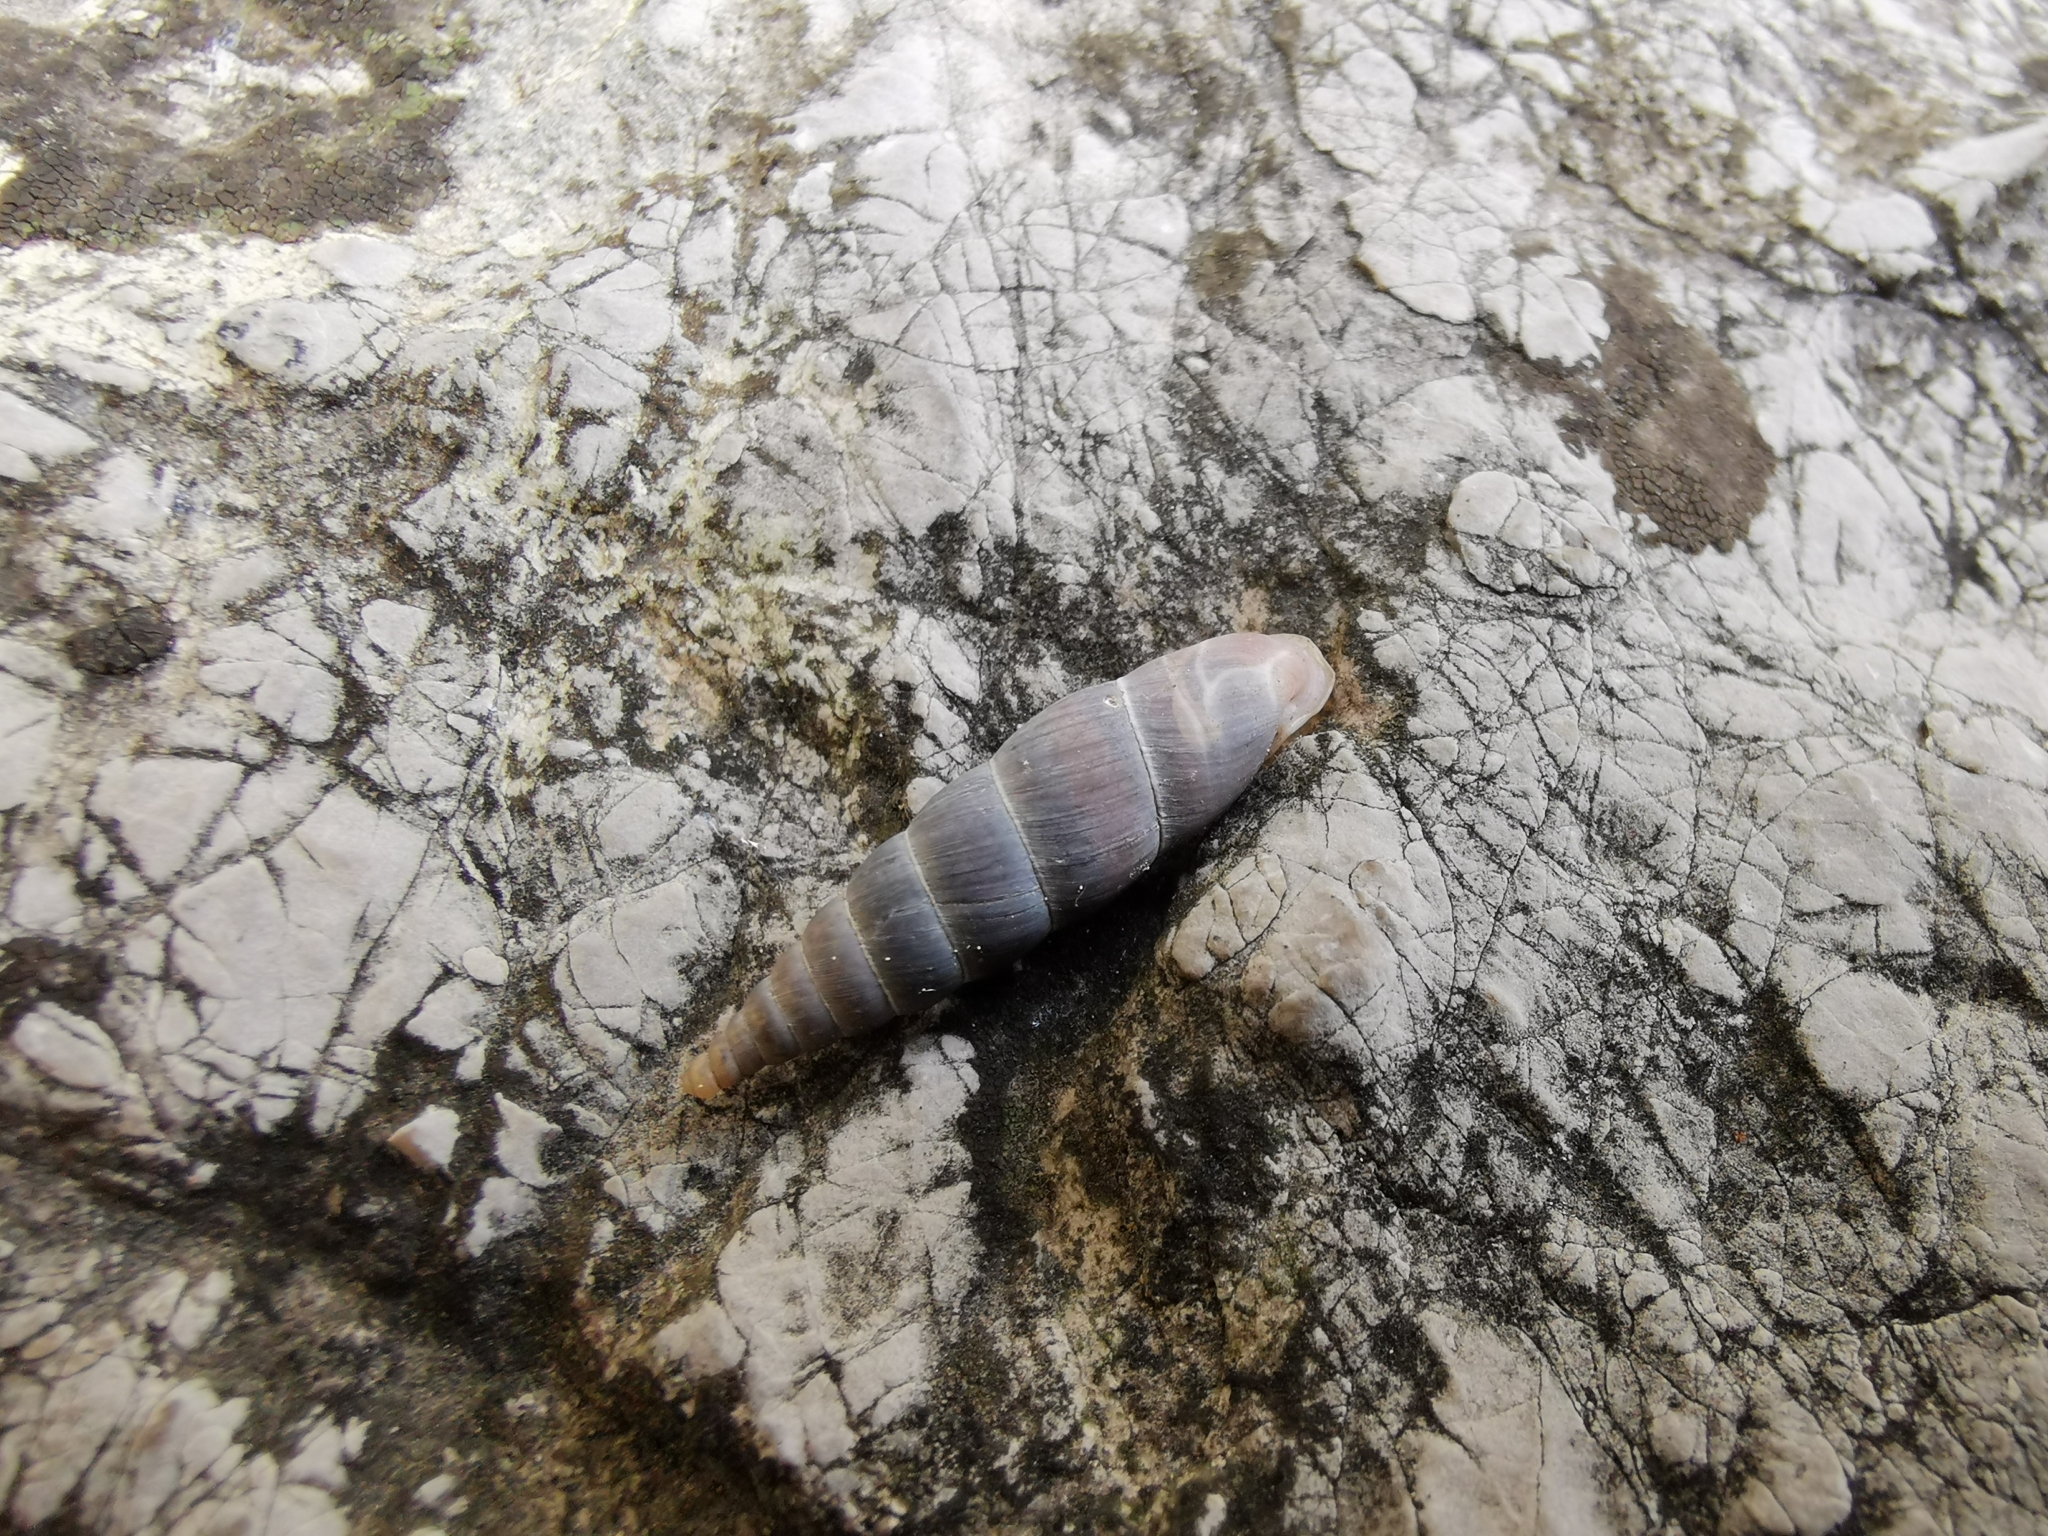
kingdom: Animalia
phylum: Mollusca
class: Gastropoda
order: Stylommatophora
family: Clausiliidae
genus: Herilla
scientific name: Herilla bosniensis
